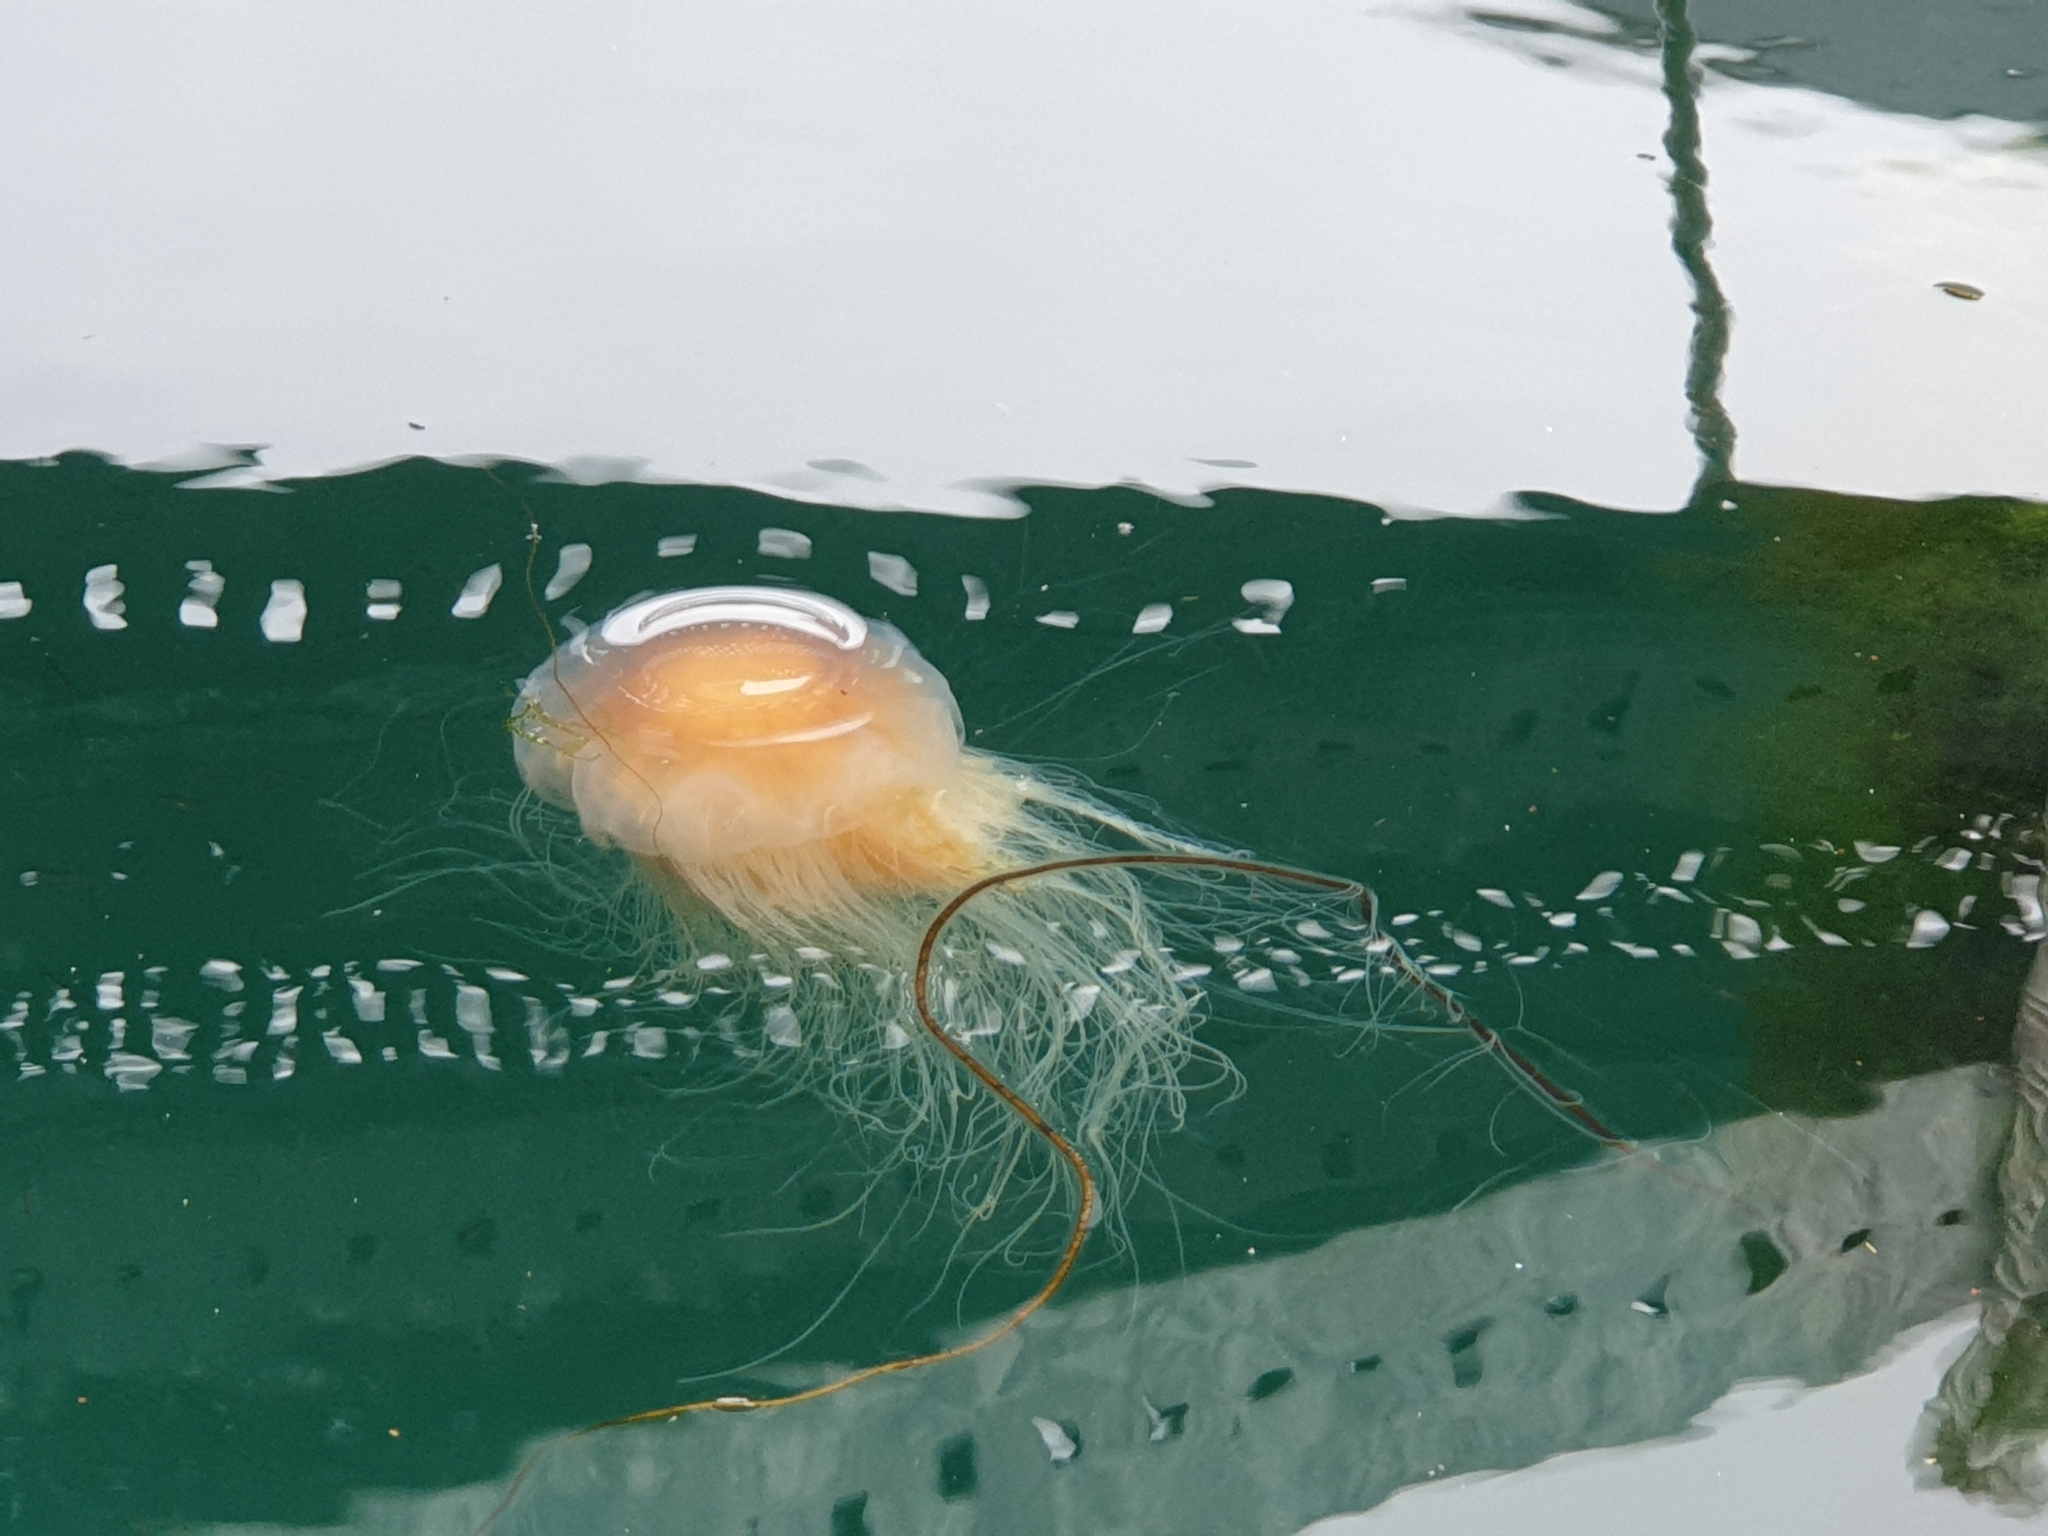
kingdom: Animalia
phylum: Cnidaria
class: Scyphozoa
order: Semaeostomeae
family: Cyaneidae
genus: Cyanea
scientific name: Cyanea capillata
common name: Lion's mane jellyfish
